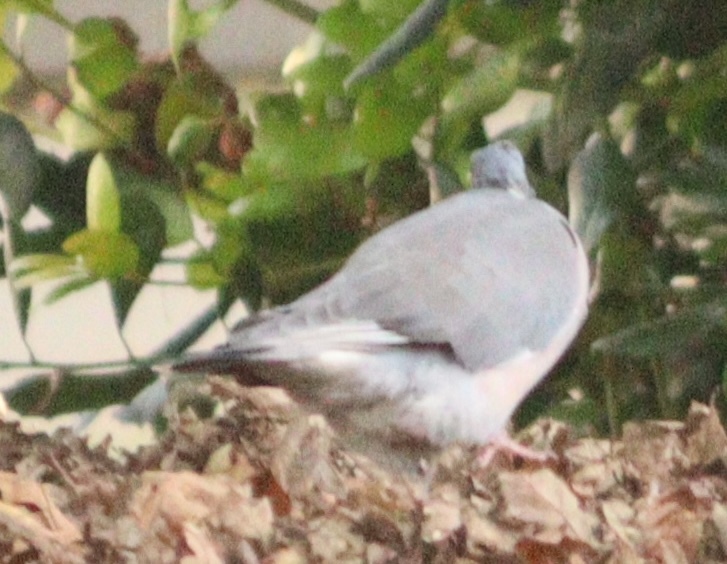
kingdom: Animalia
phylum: Chordata
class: Aves
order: Columbiformes
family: Columbidae
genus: Columba
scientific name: Columba palumbus
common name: Common wood pigeon
